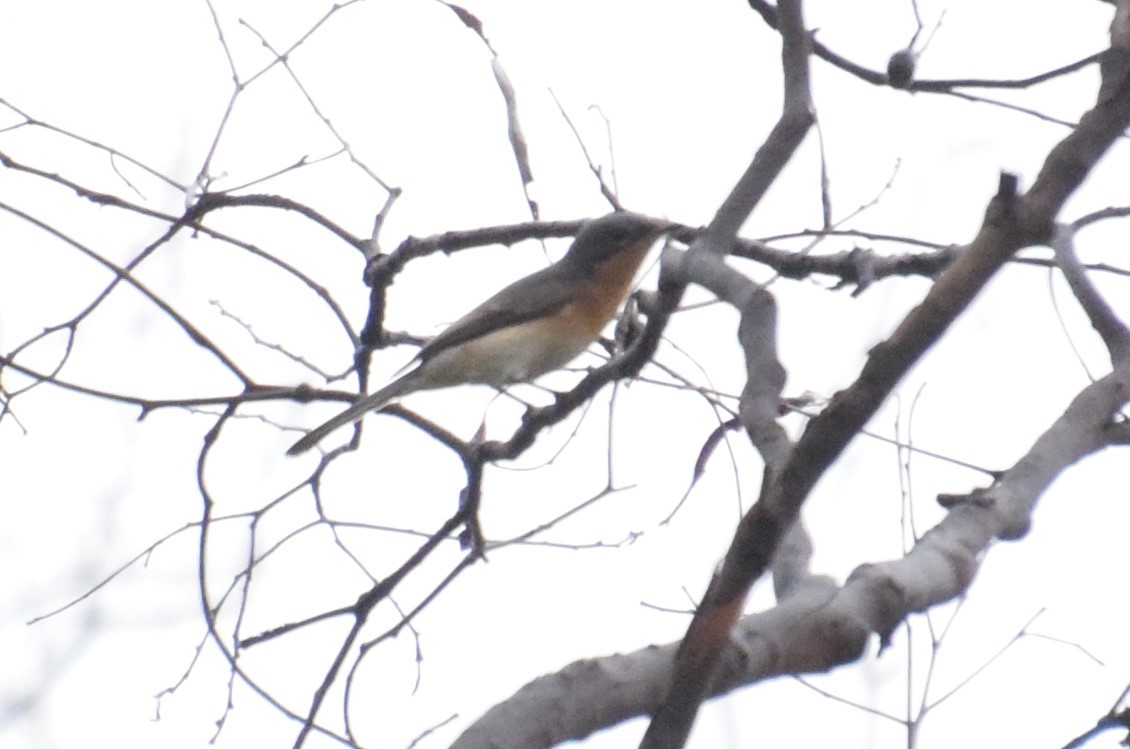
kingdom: Animalia
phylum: Chordata
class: Aves
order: Passeriformes
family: Monarchidae
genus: Myiagra
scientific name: Myiagra rubecula
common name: Leaden flycatcher
